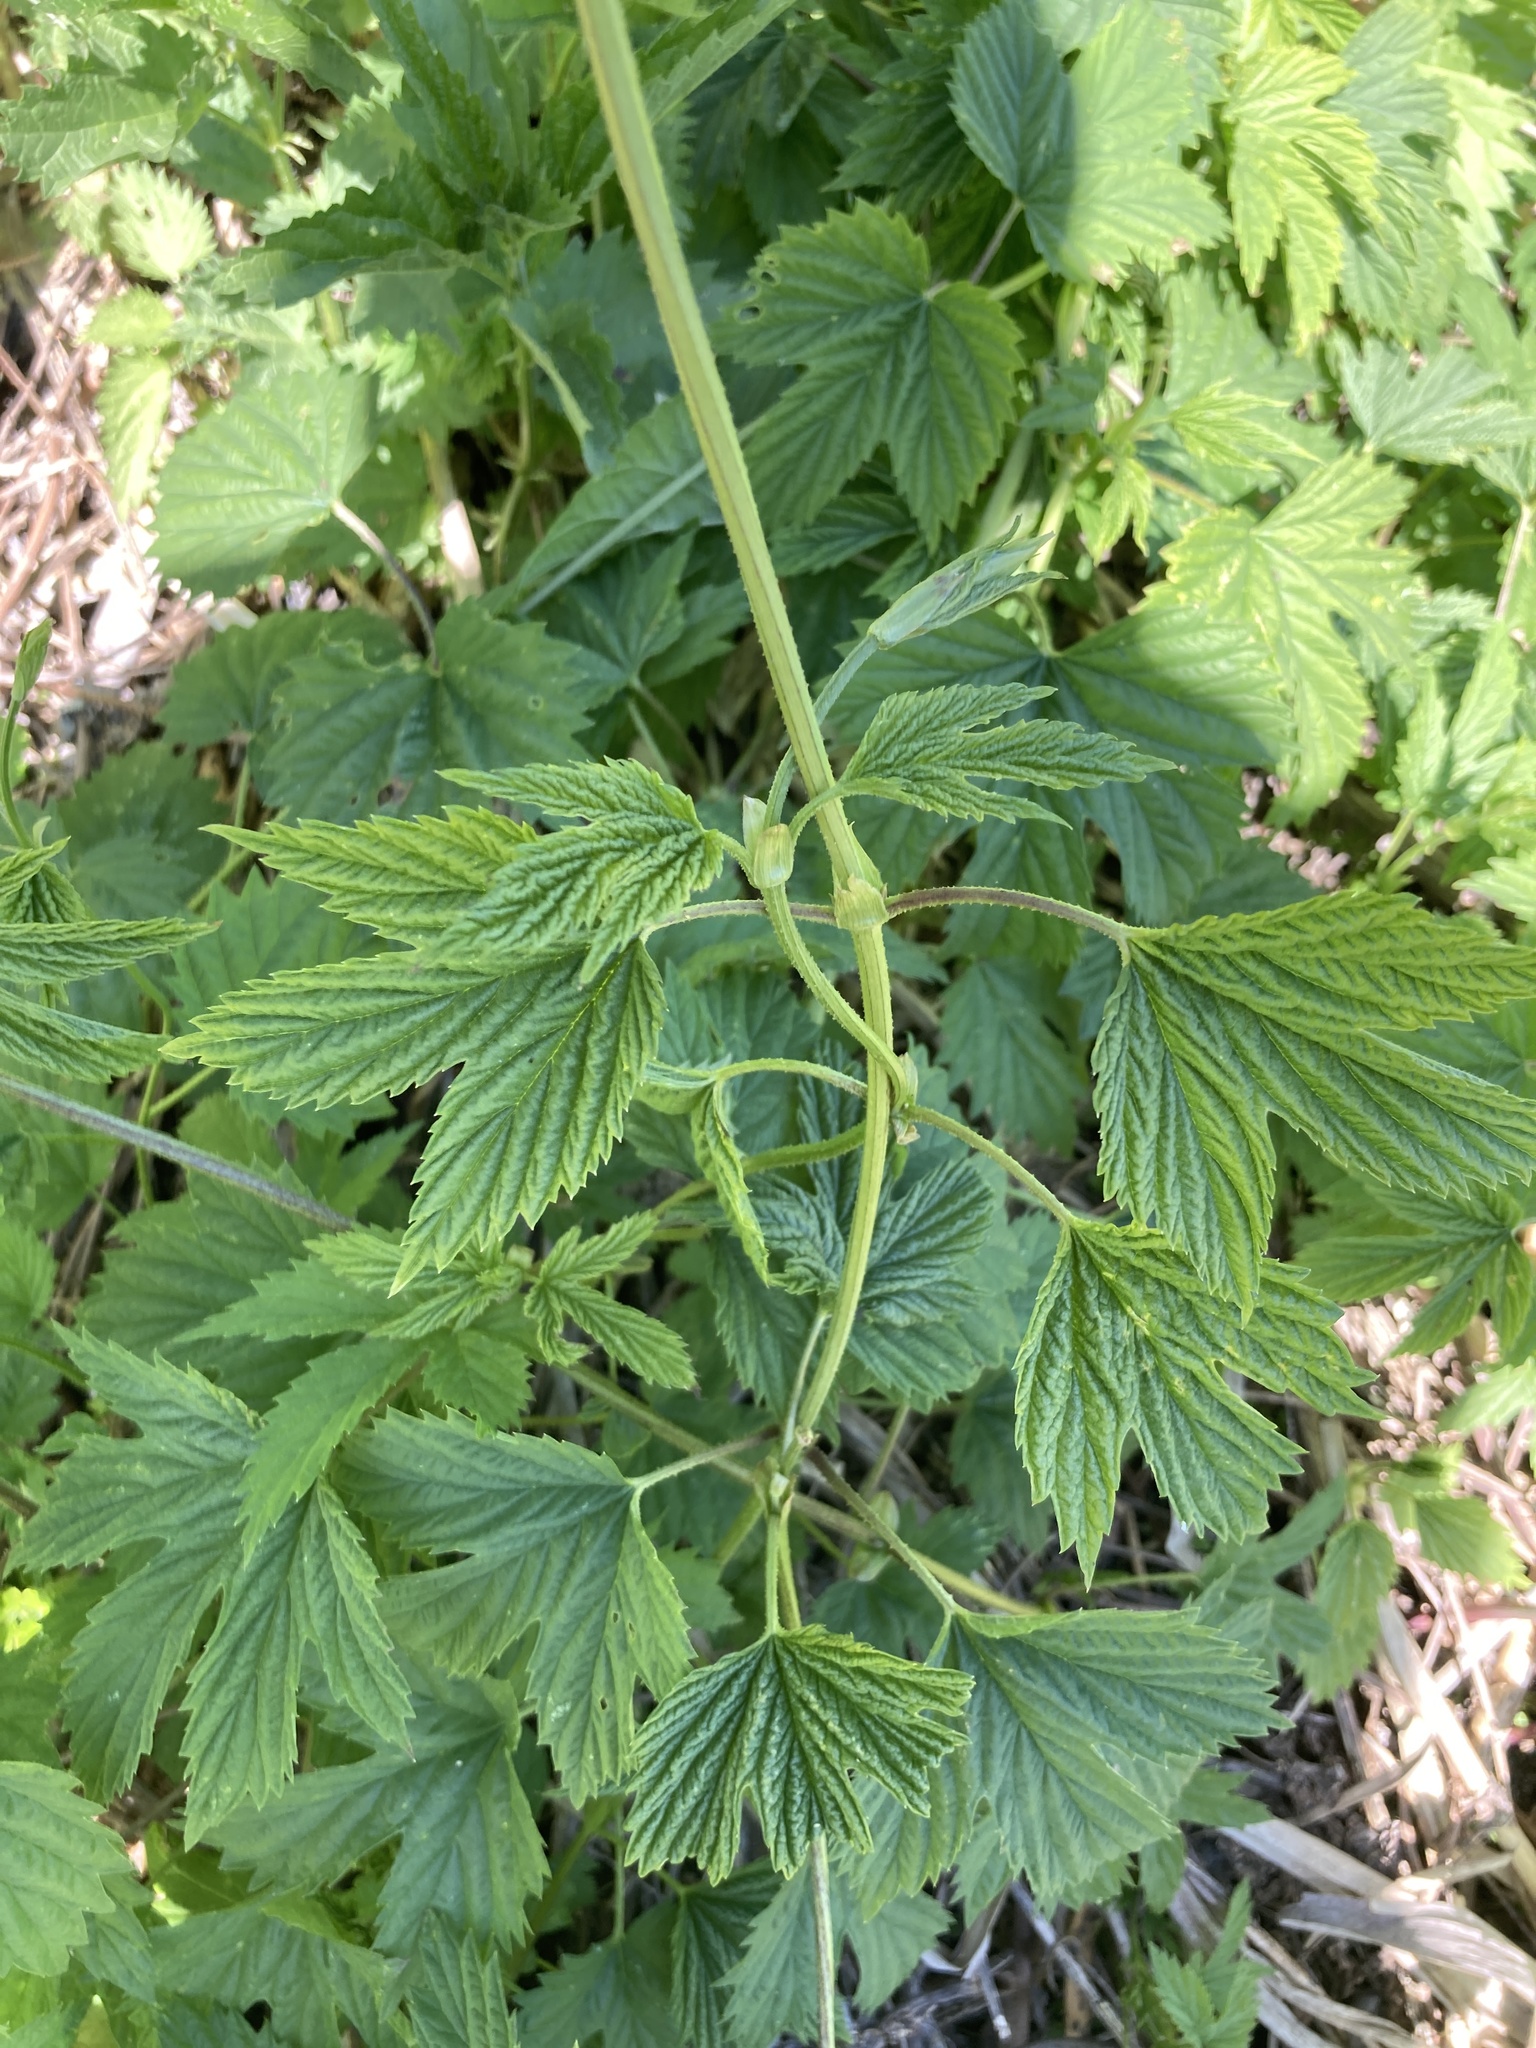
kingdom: Plantae
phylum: Tracheophyta
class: Magnoliopsida
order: Rosales
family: Cannabaceae
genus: Humulus
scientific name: Humulus lupulus
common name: Hop
